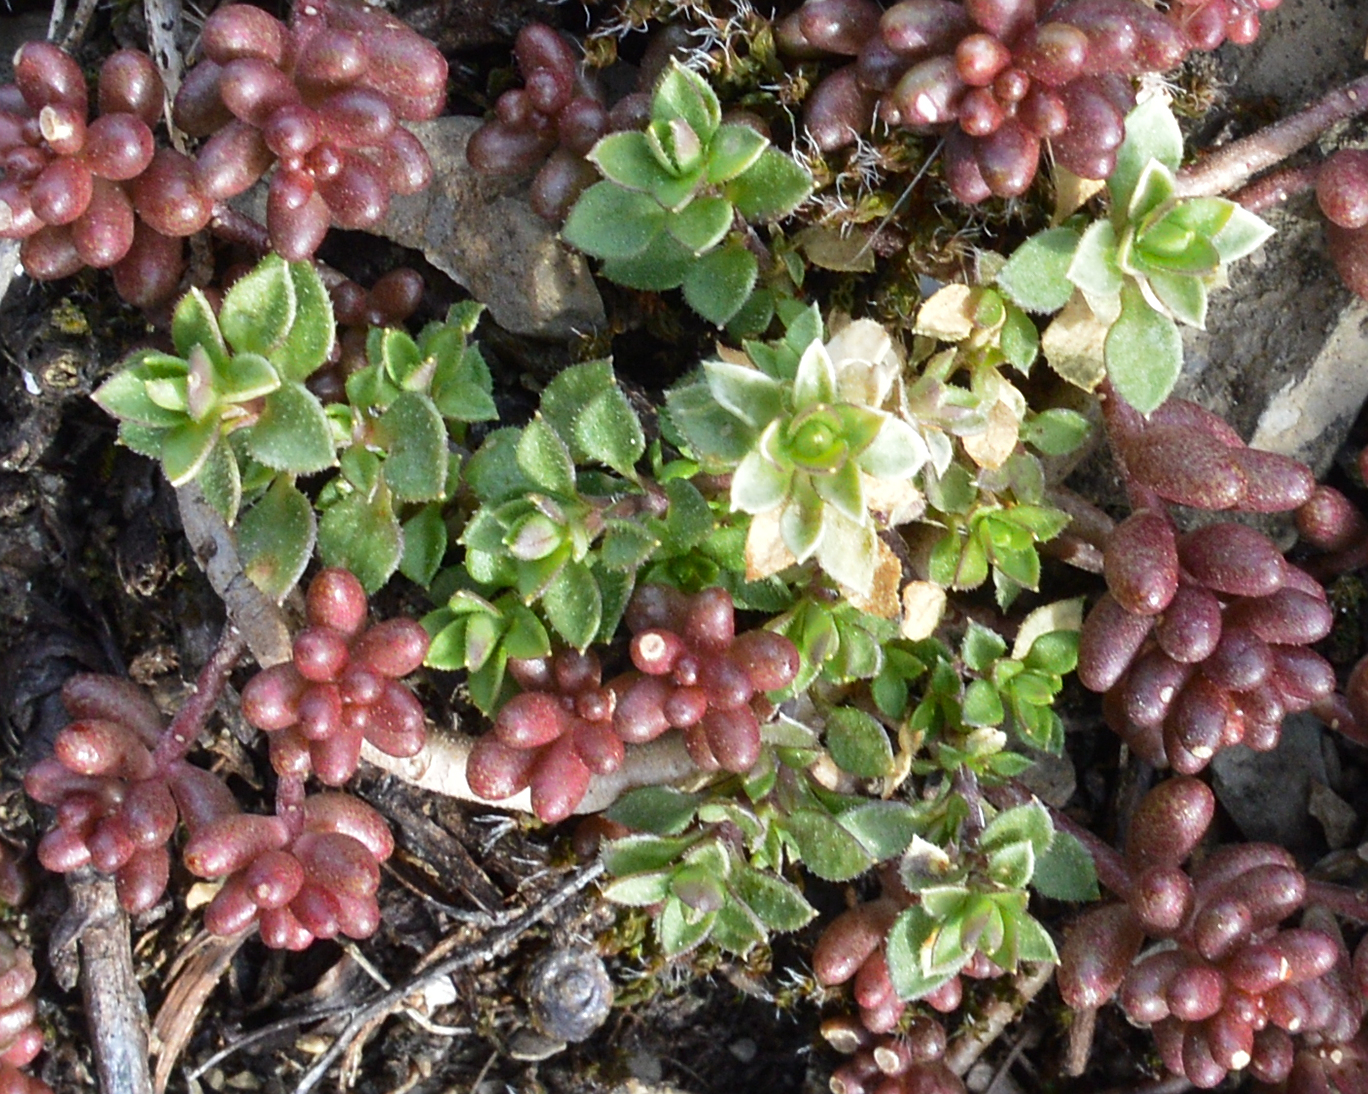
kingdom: Plantae
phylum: Tracheophyta
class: Magnoliopsida
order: Saxifragales
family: Crassulaceae
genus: Sedum
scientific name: Sedum album
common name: White stonecrop
